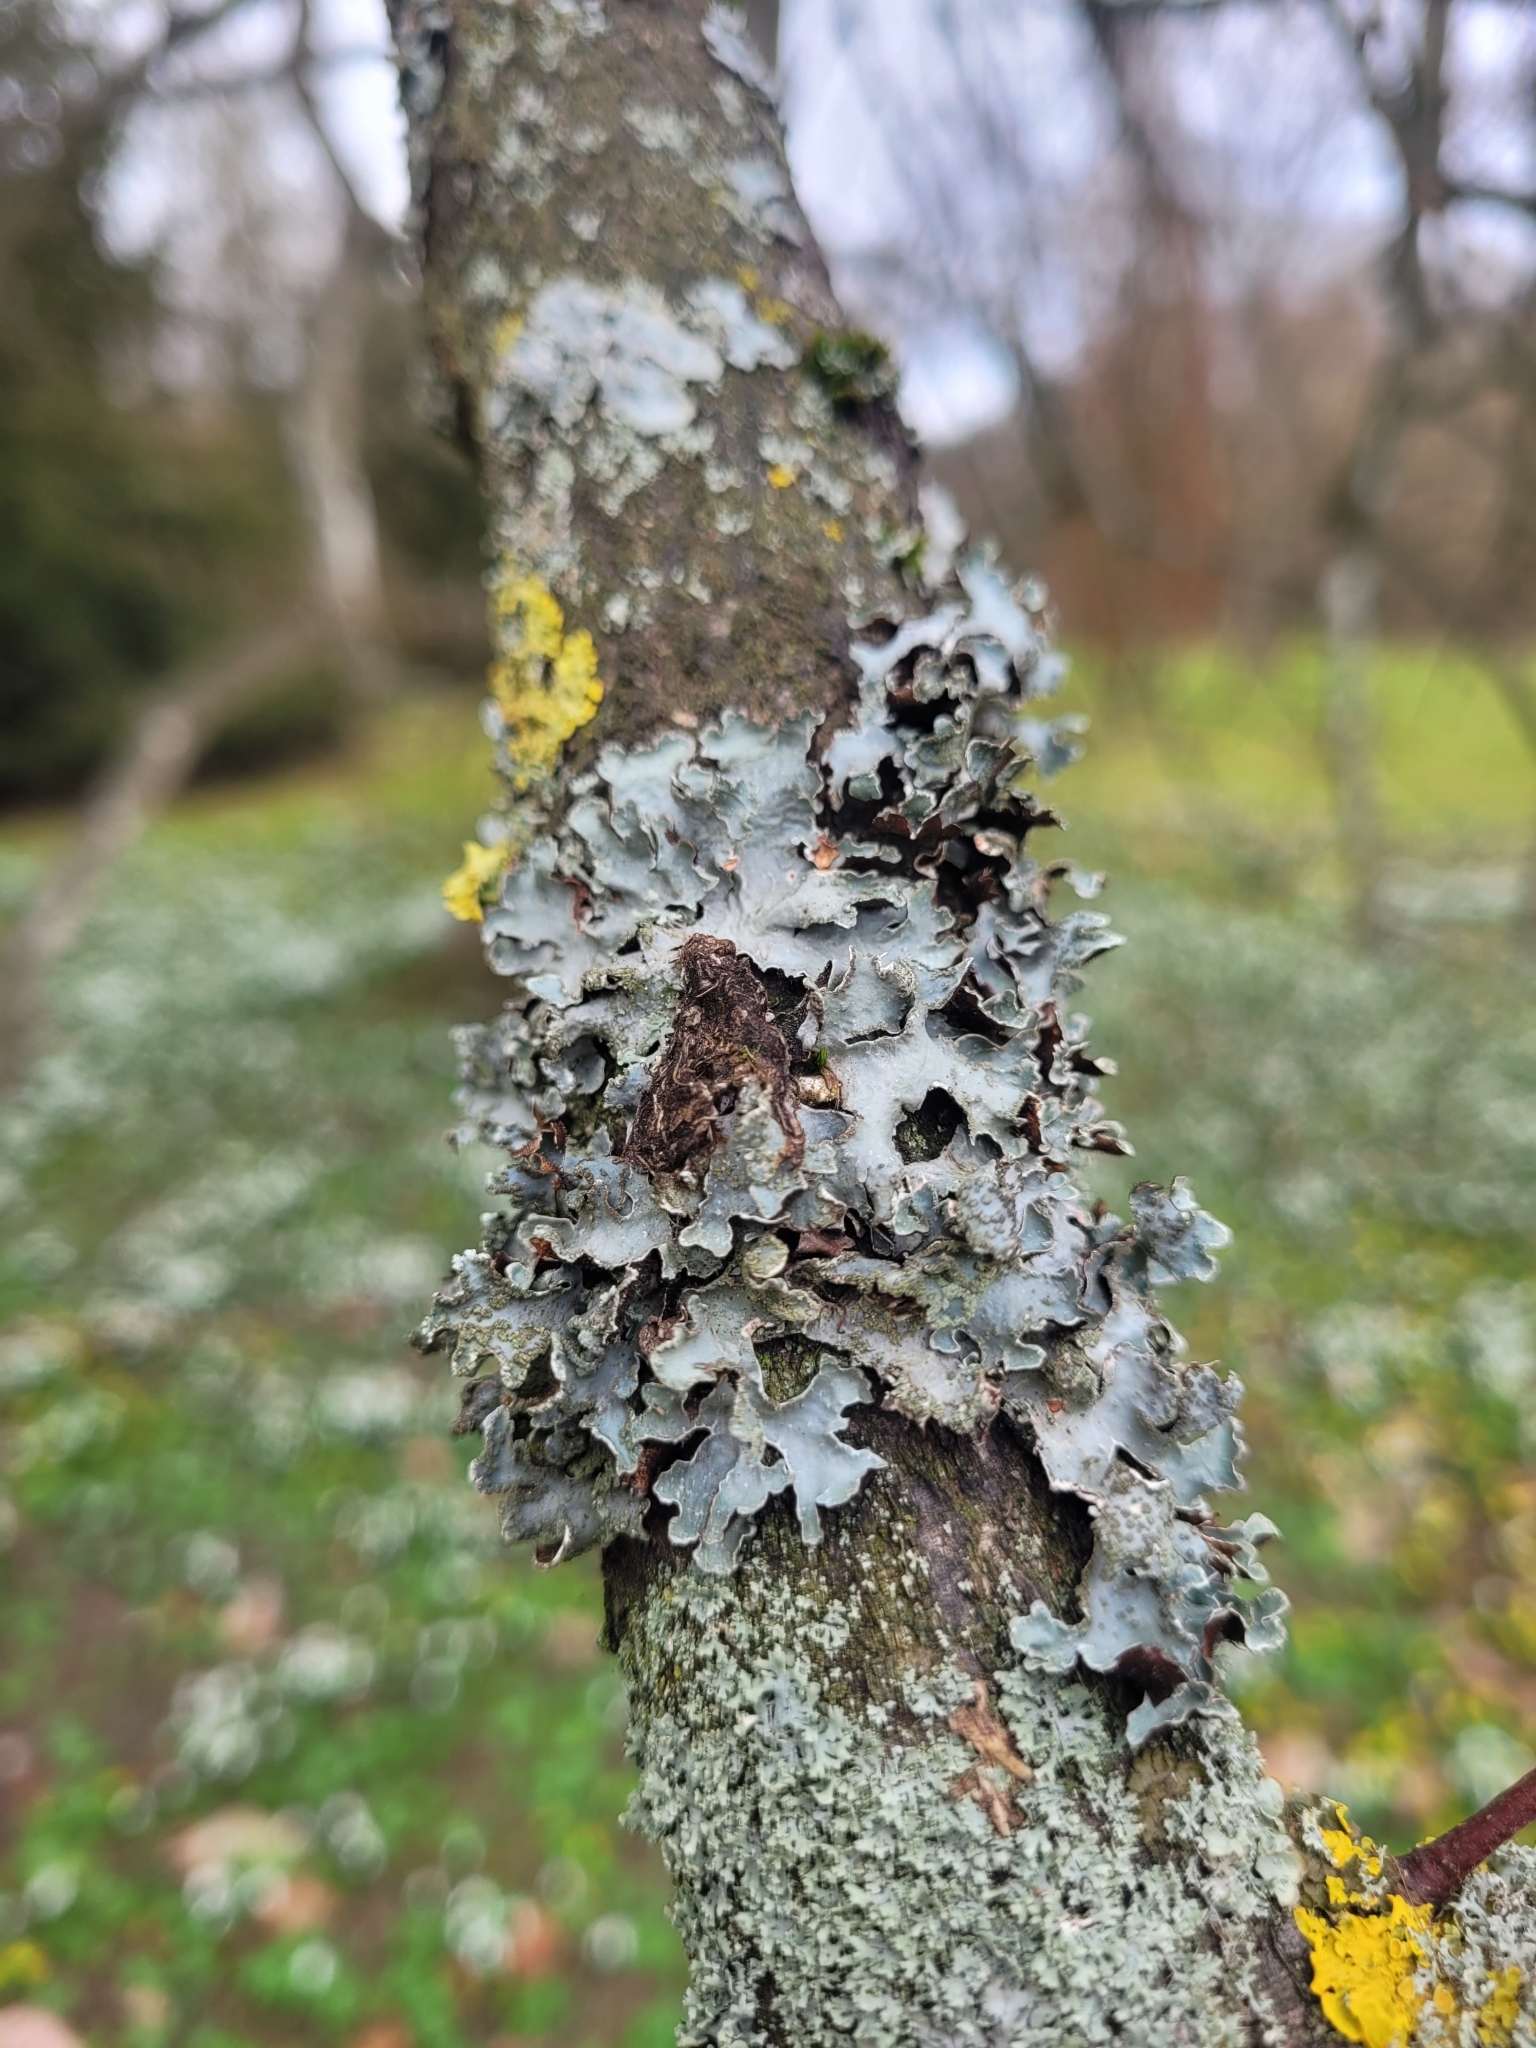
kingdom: Fungi
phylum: Ascomycota
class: Lecanoromycetes
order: Lecanorales
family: Parmeliaceae
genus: Parmelia
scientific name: Parmelia sulcata
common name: Netted shield lichen
